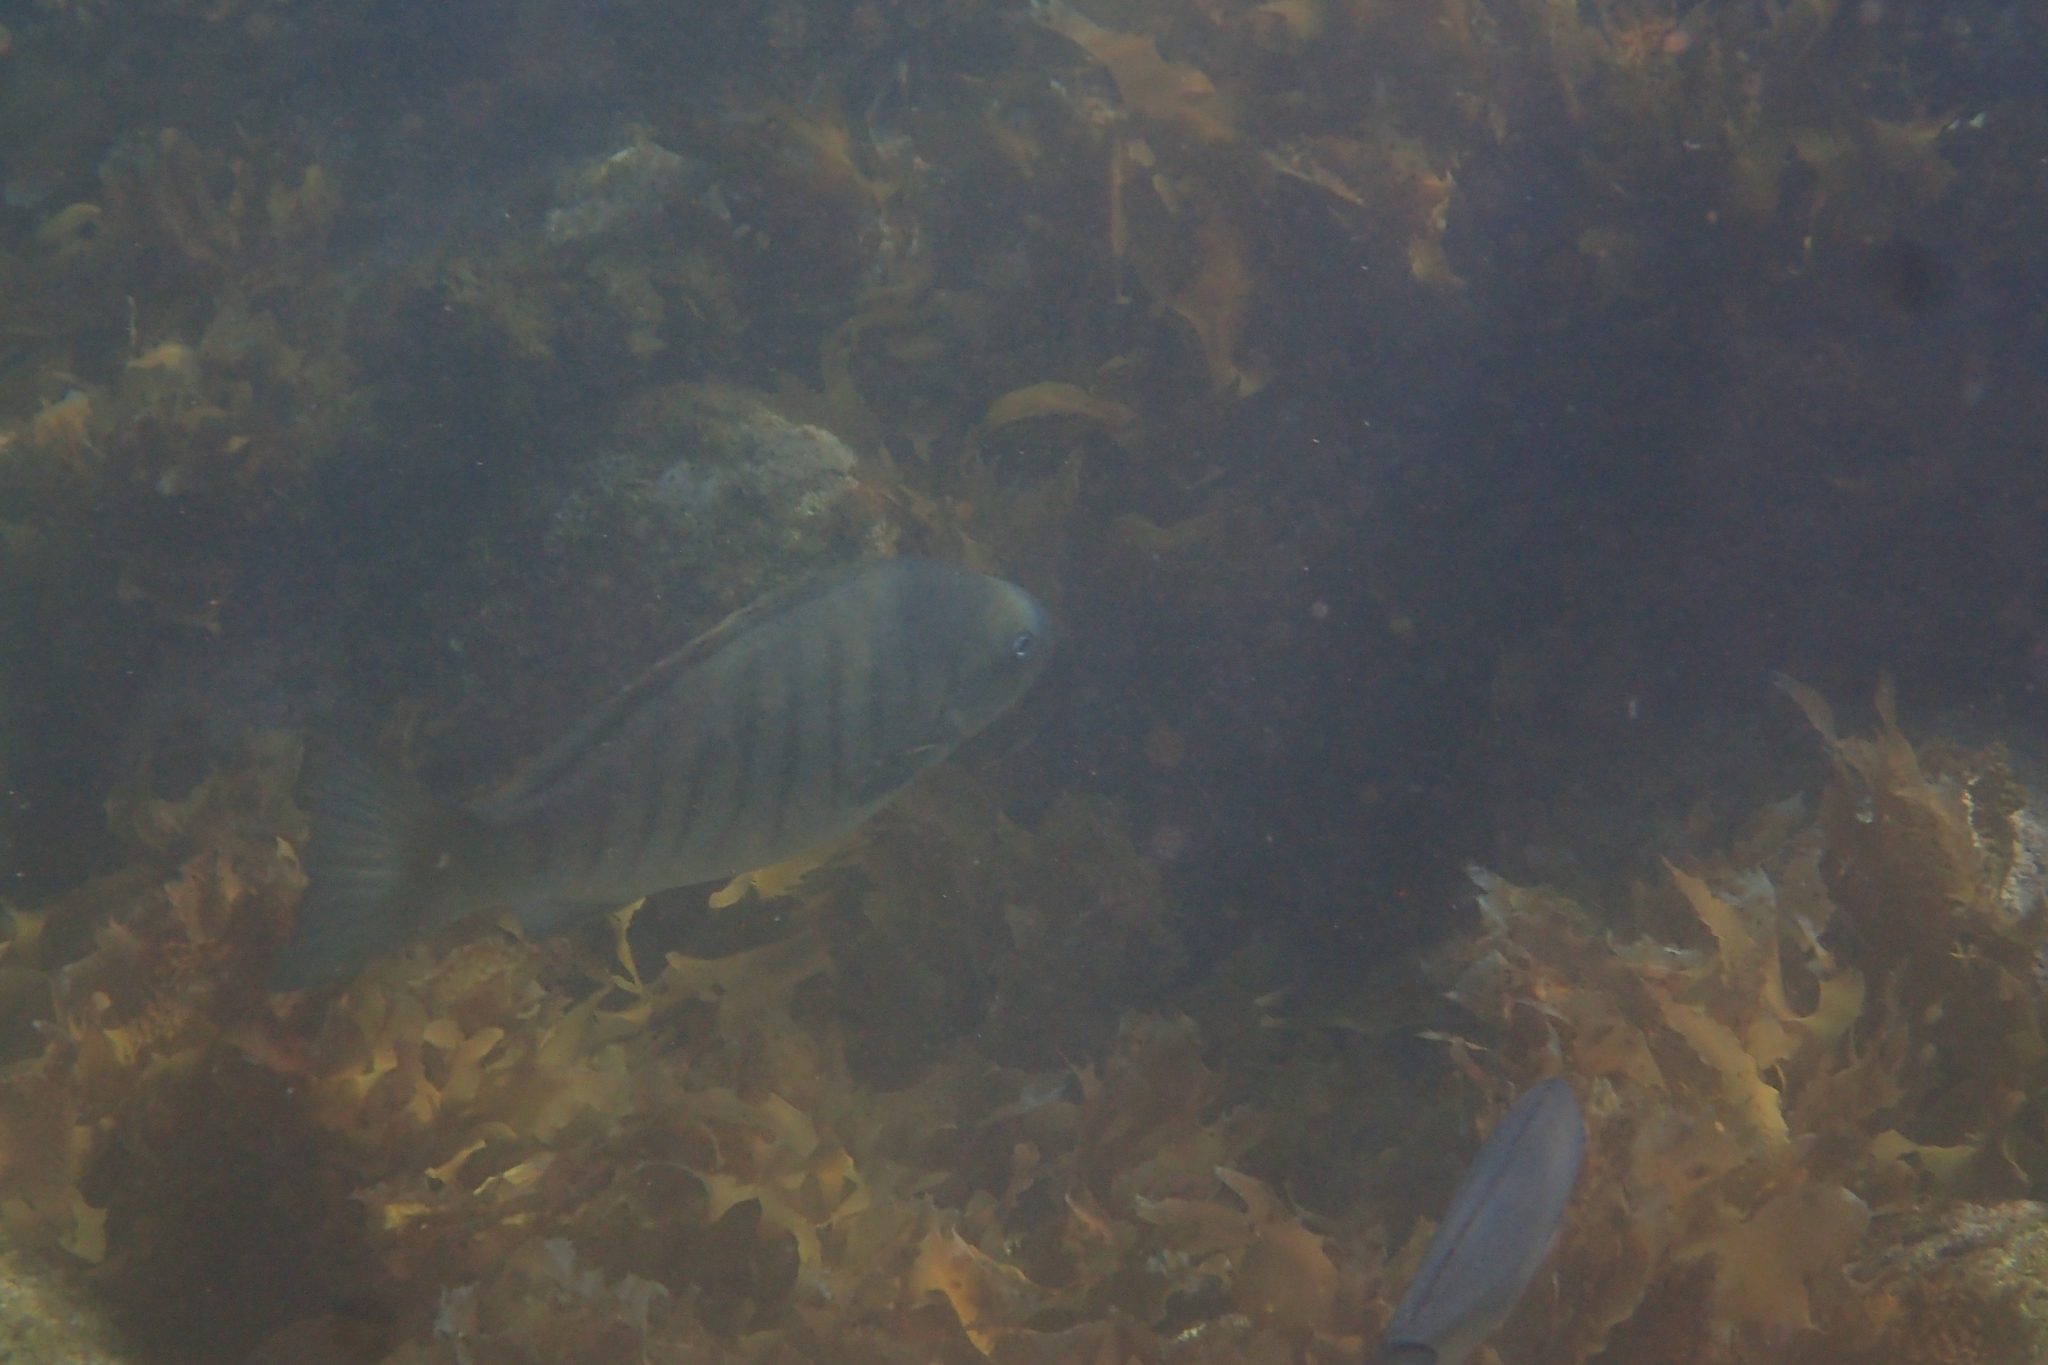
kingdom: Animalia
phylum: Chordata
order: Perciformes
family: Kyphosidae
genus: Girella
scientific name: Girella tricuspidata
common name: Parore
